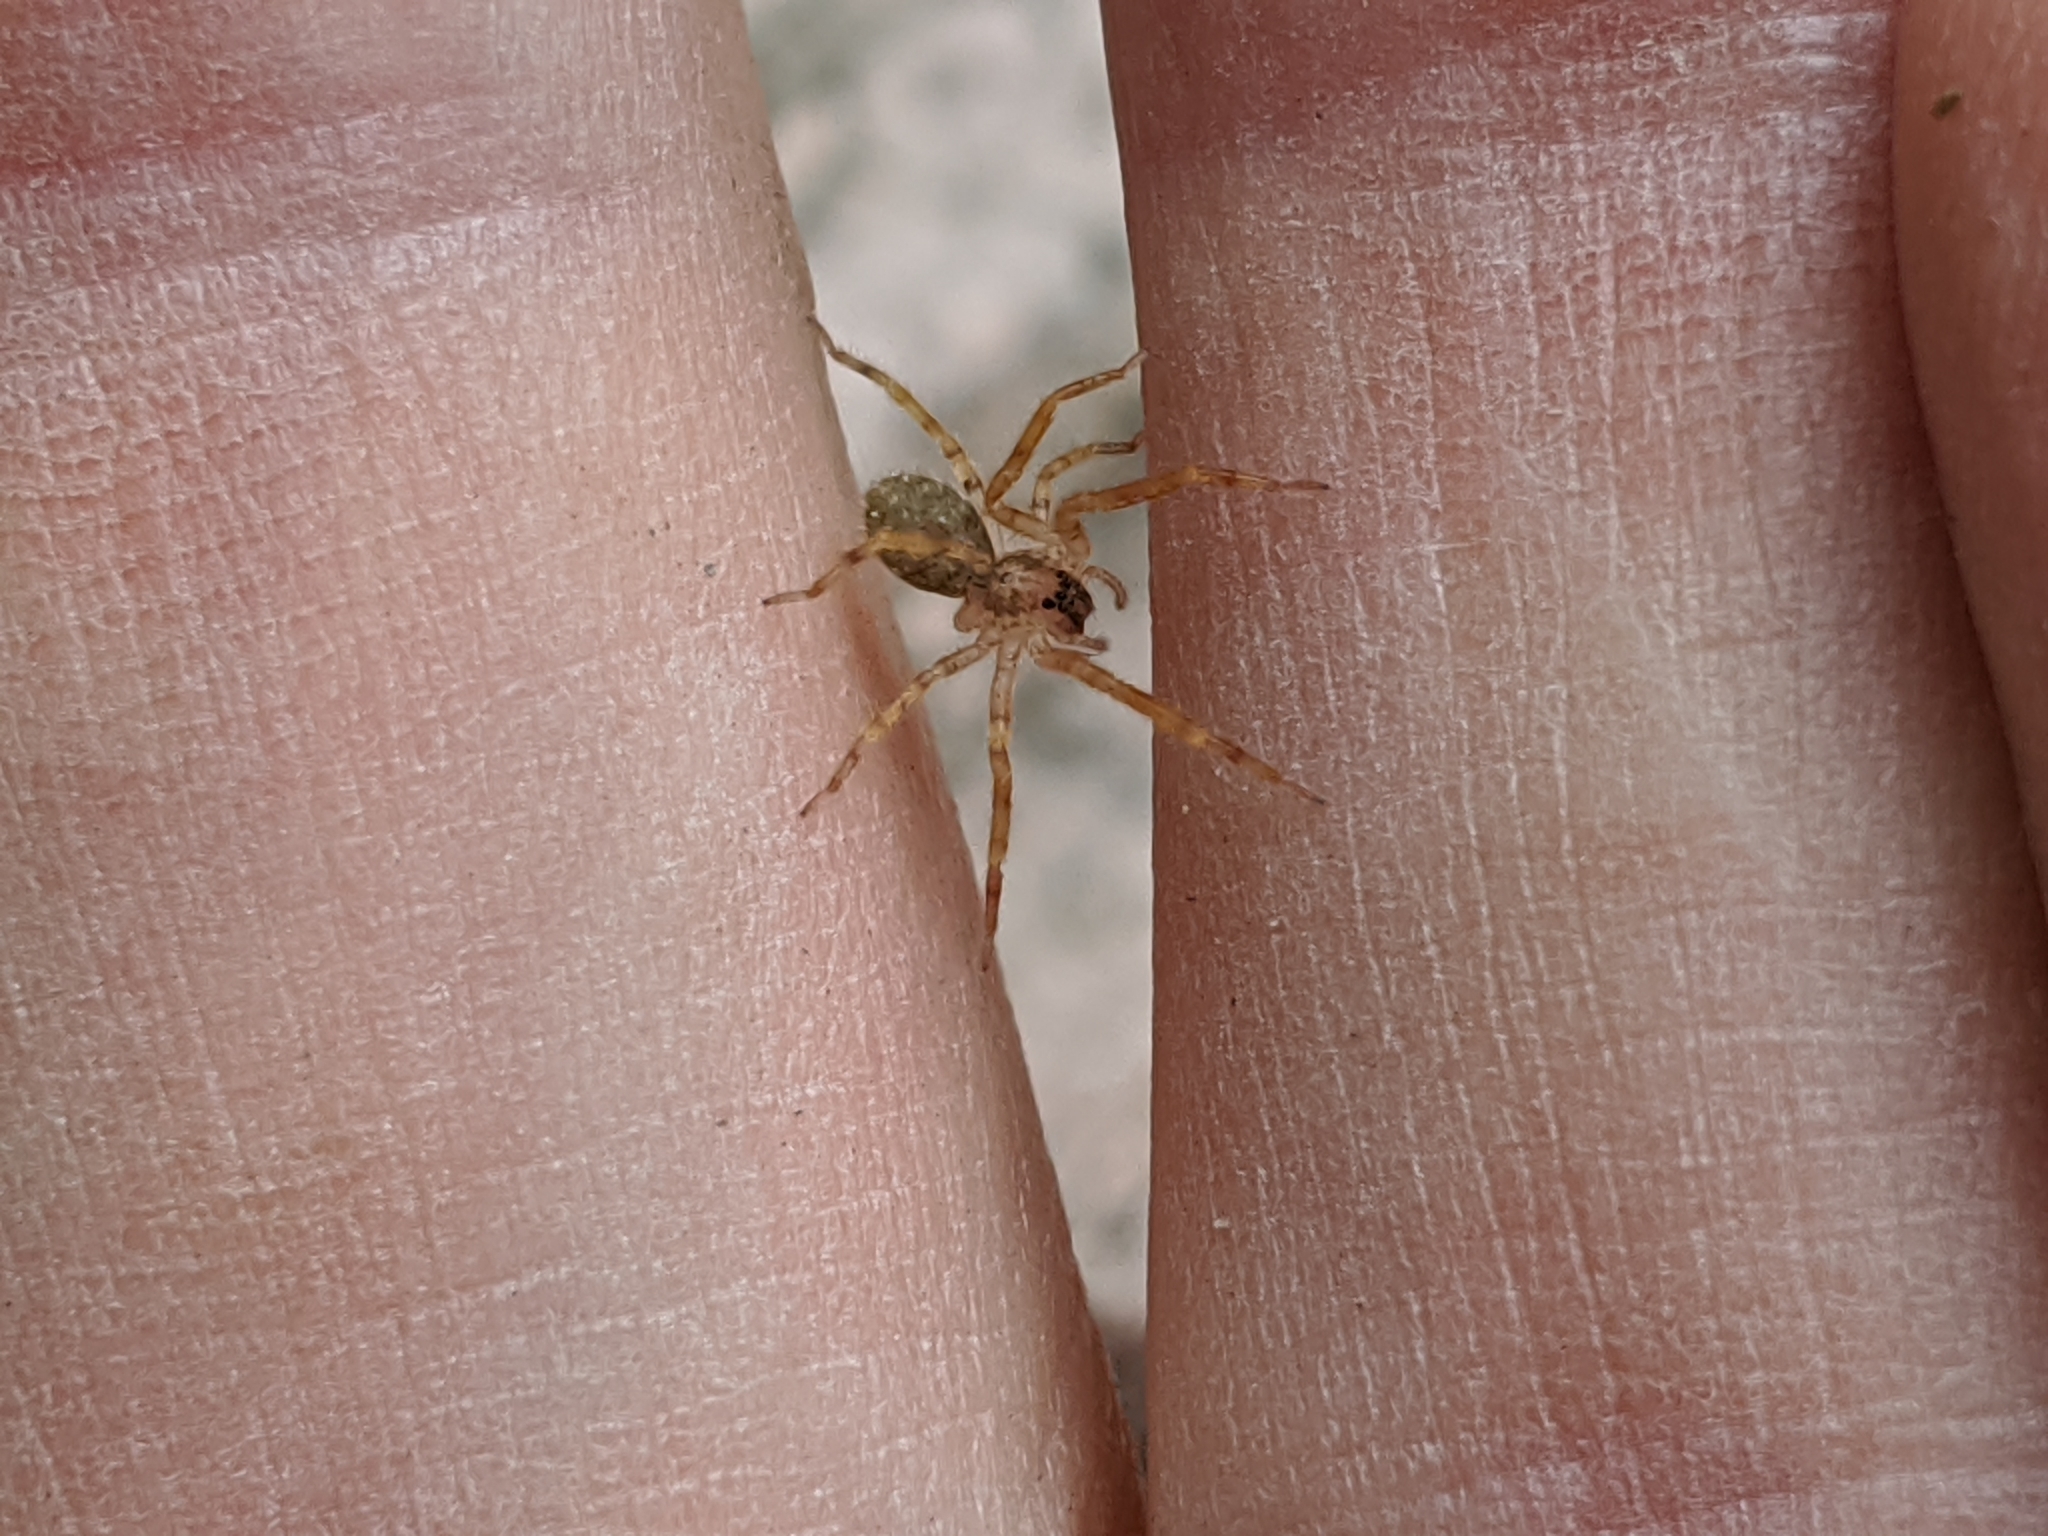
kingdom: Animalia
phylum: Arthropoda
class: Arachnida
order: Araneae
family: Zoropsidae
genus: Zoropsis
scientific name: Zoropsis spinimana
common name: Zoropsid spider
